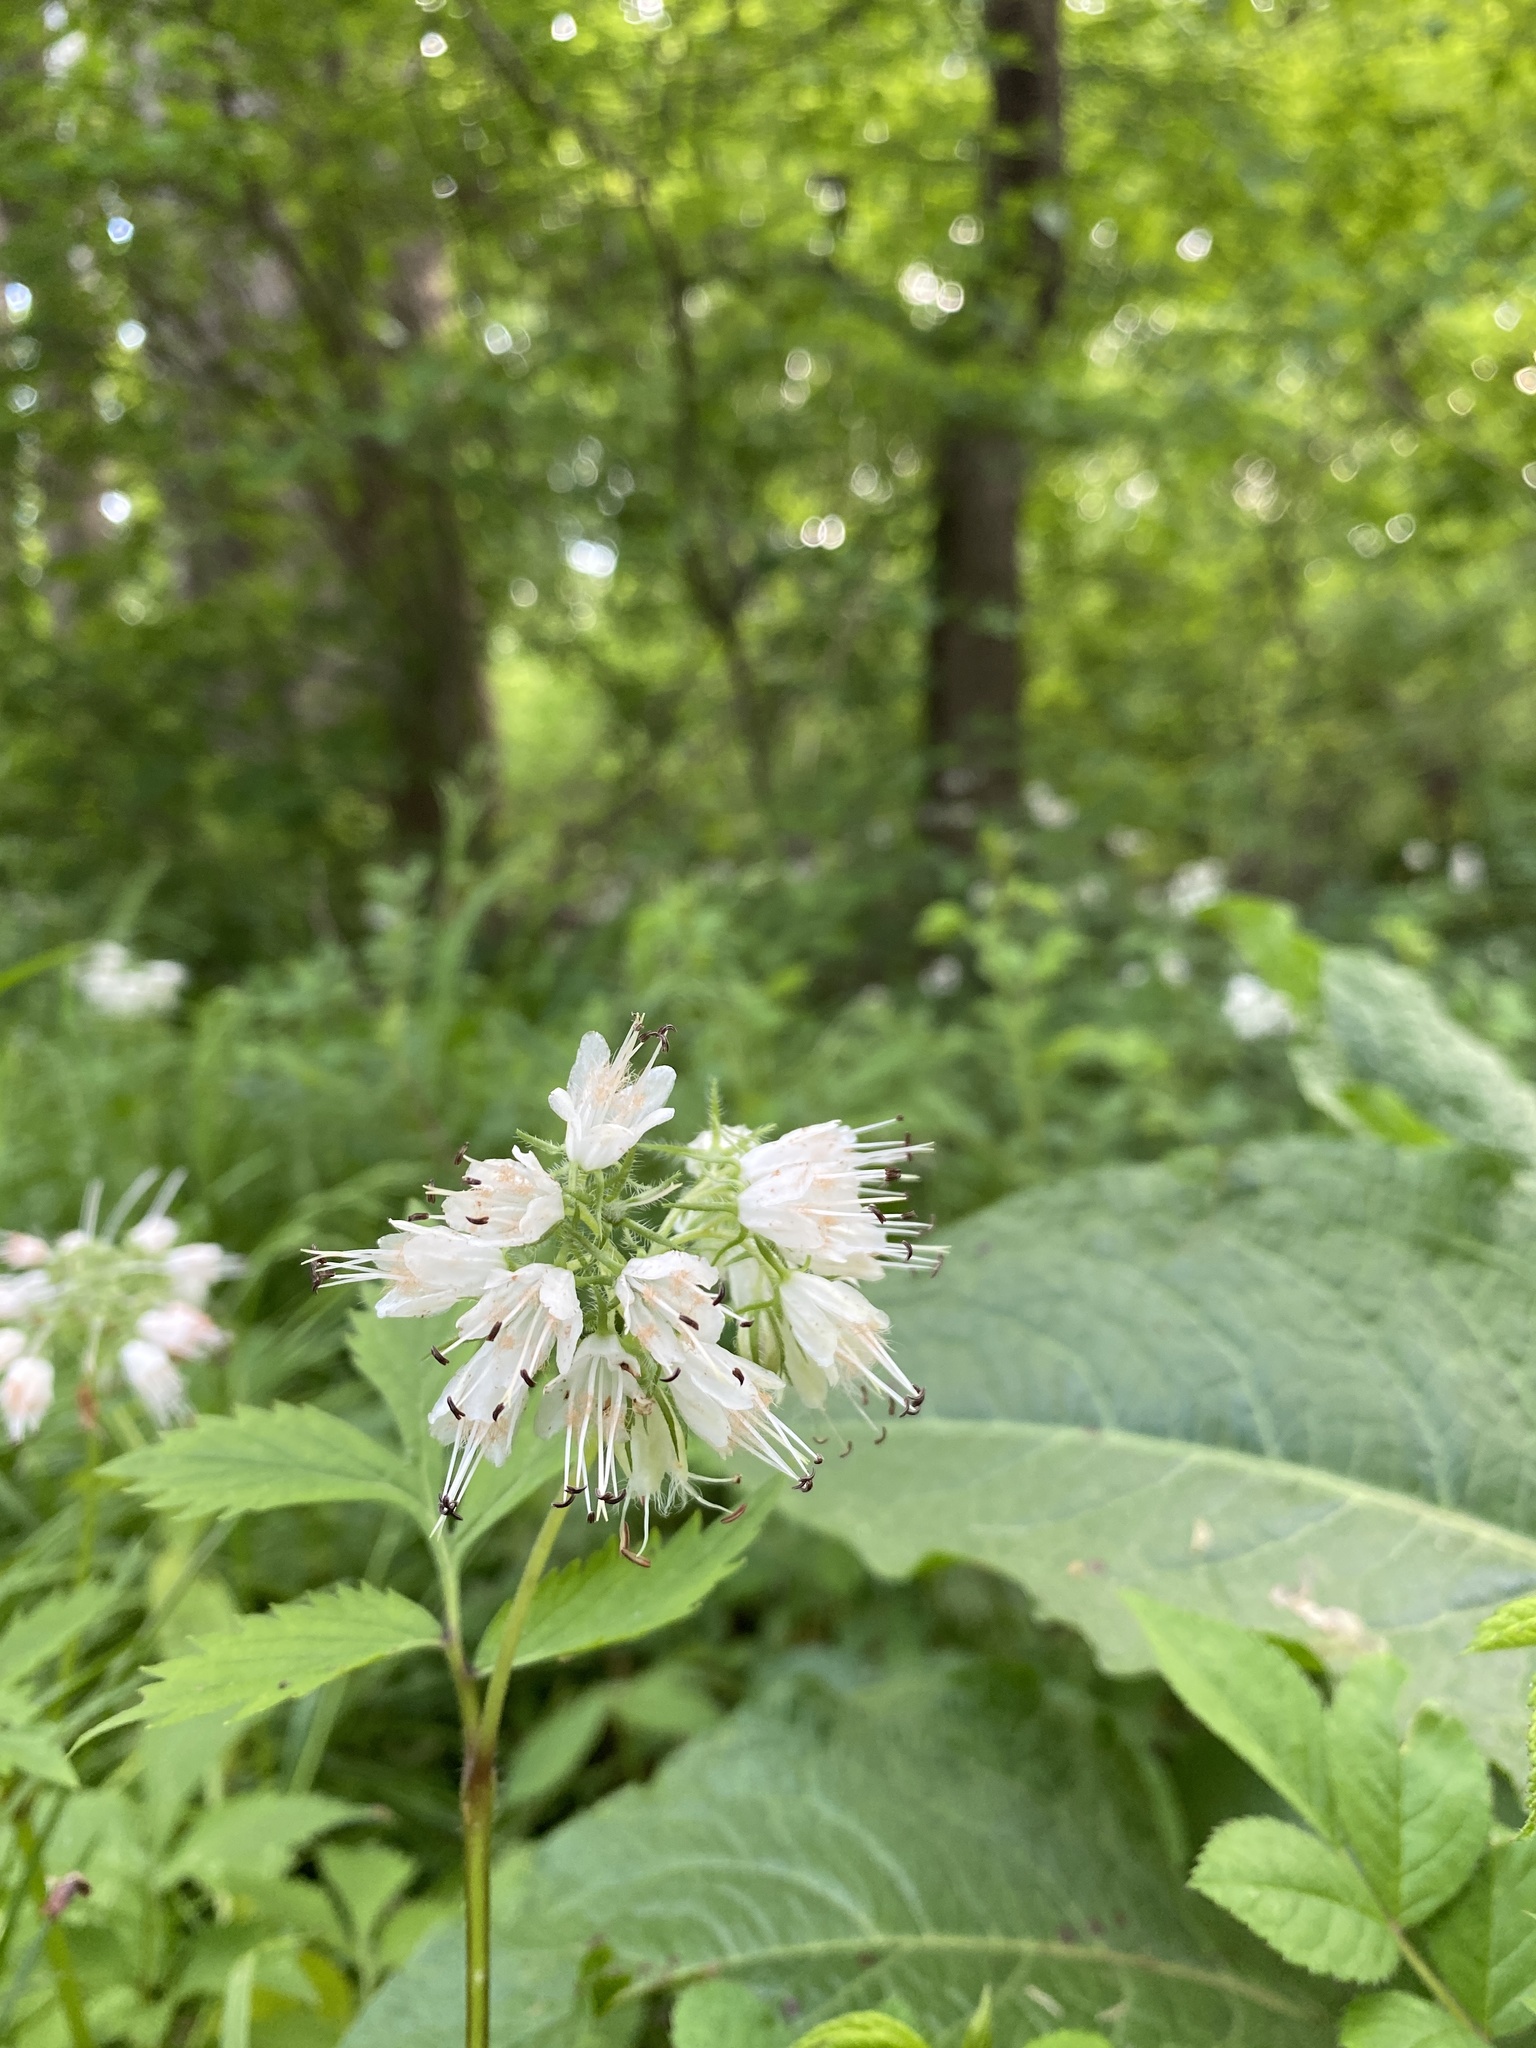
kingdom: Plantae
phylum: Tracheophyta
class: Magnoliopsida
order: Boraginales
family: Hydrophyllaceae
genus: Hydrophyllum
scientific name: Hydrophyllum virginianum
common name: Virginia waterleaf
